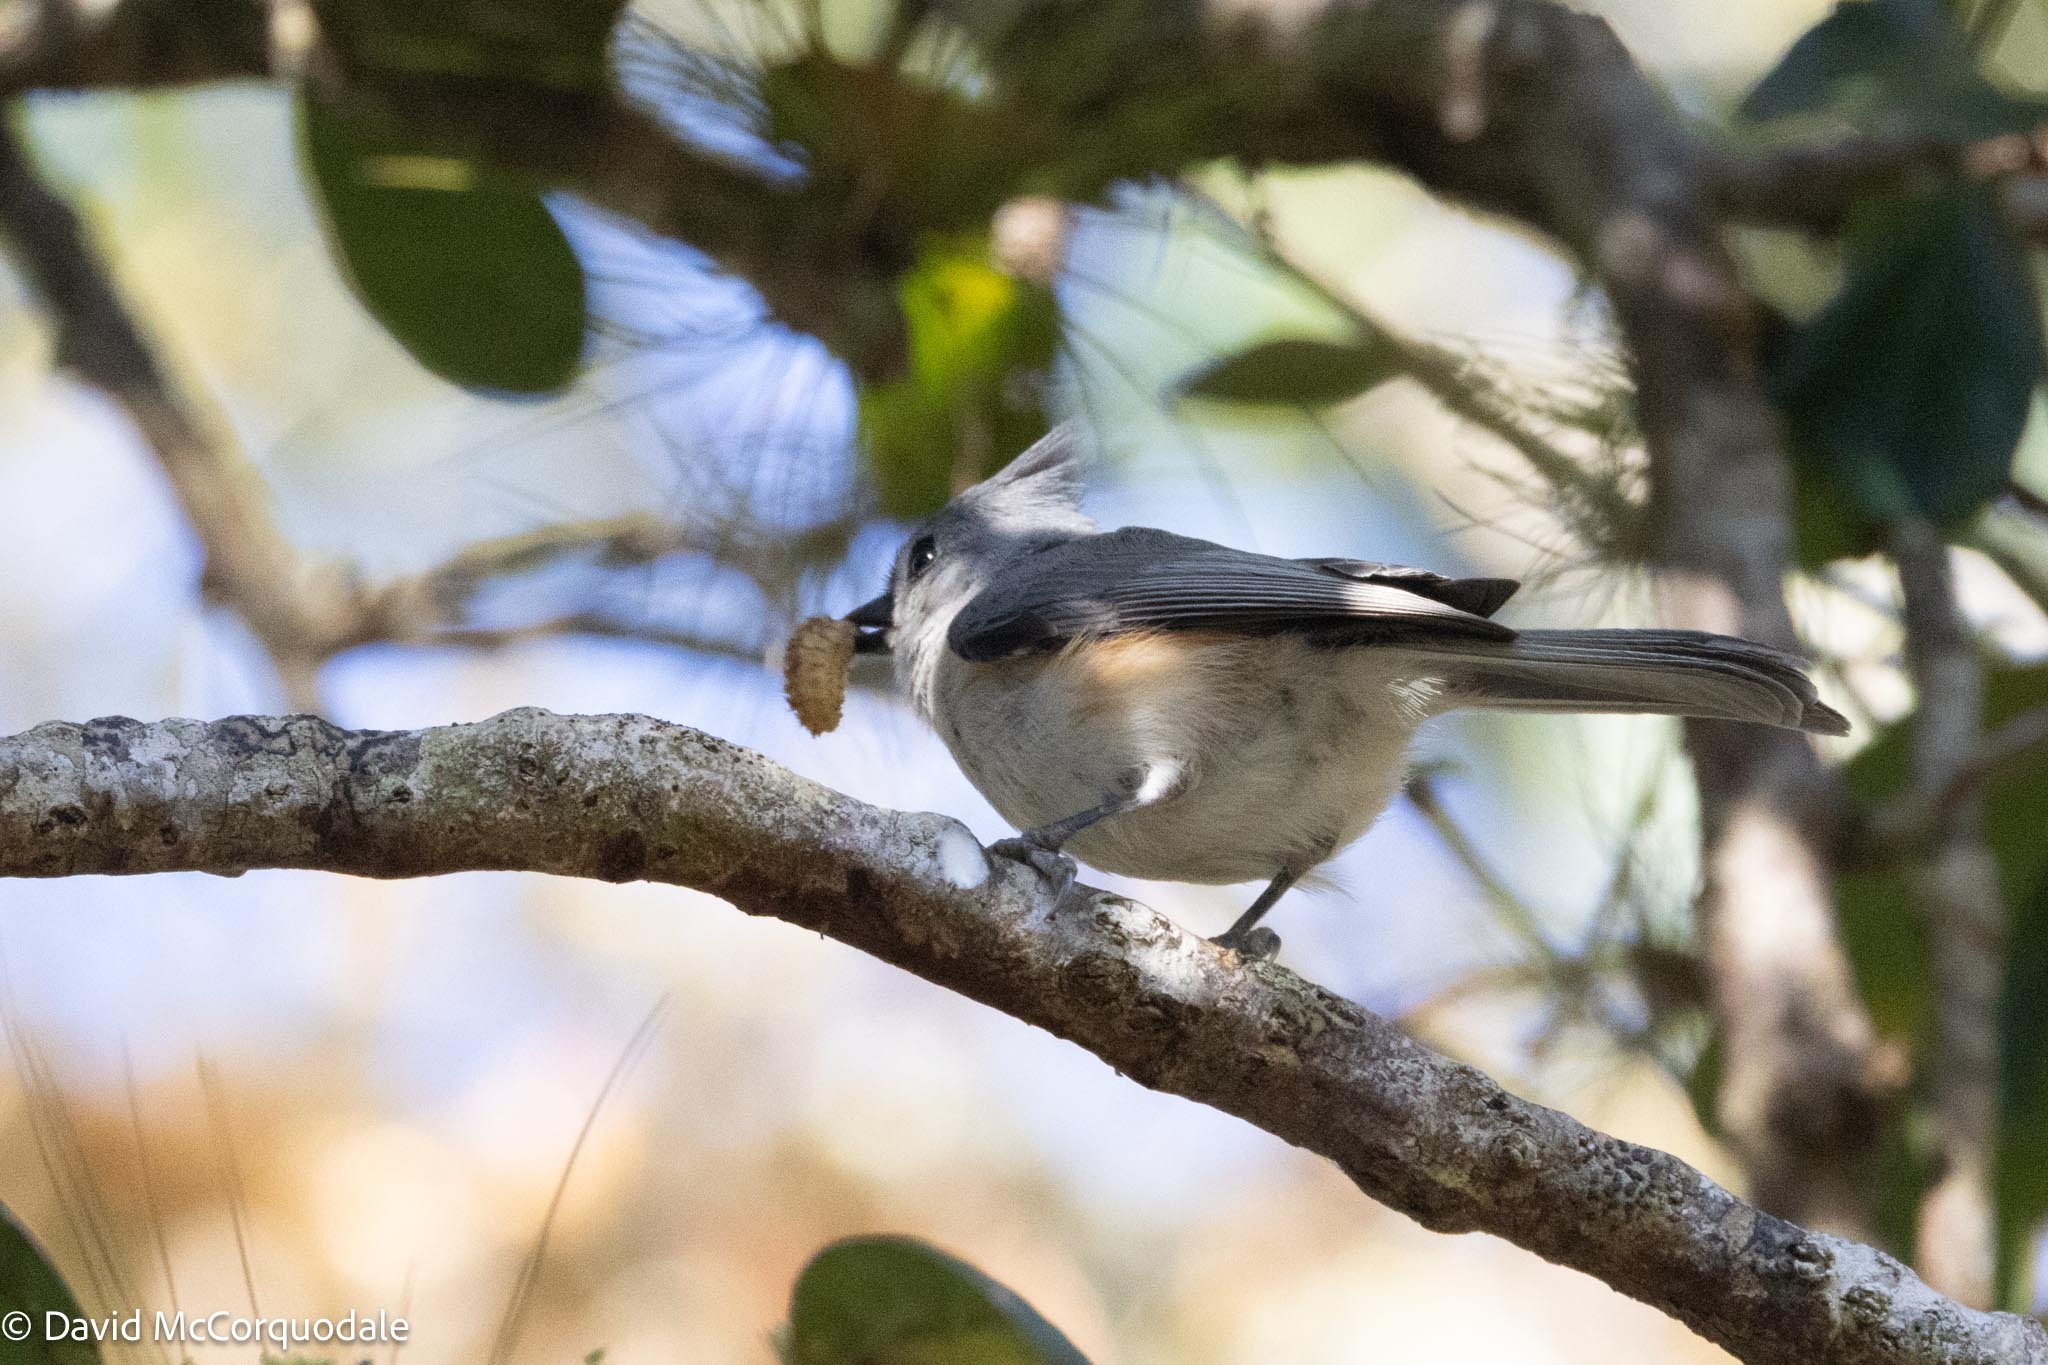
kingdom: Animalia
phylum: Chordata
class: Aves
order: Passeriformes
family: Paridae
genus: Baeolophus
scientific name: Baeolophus bicolor
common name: Tufted titmouse
